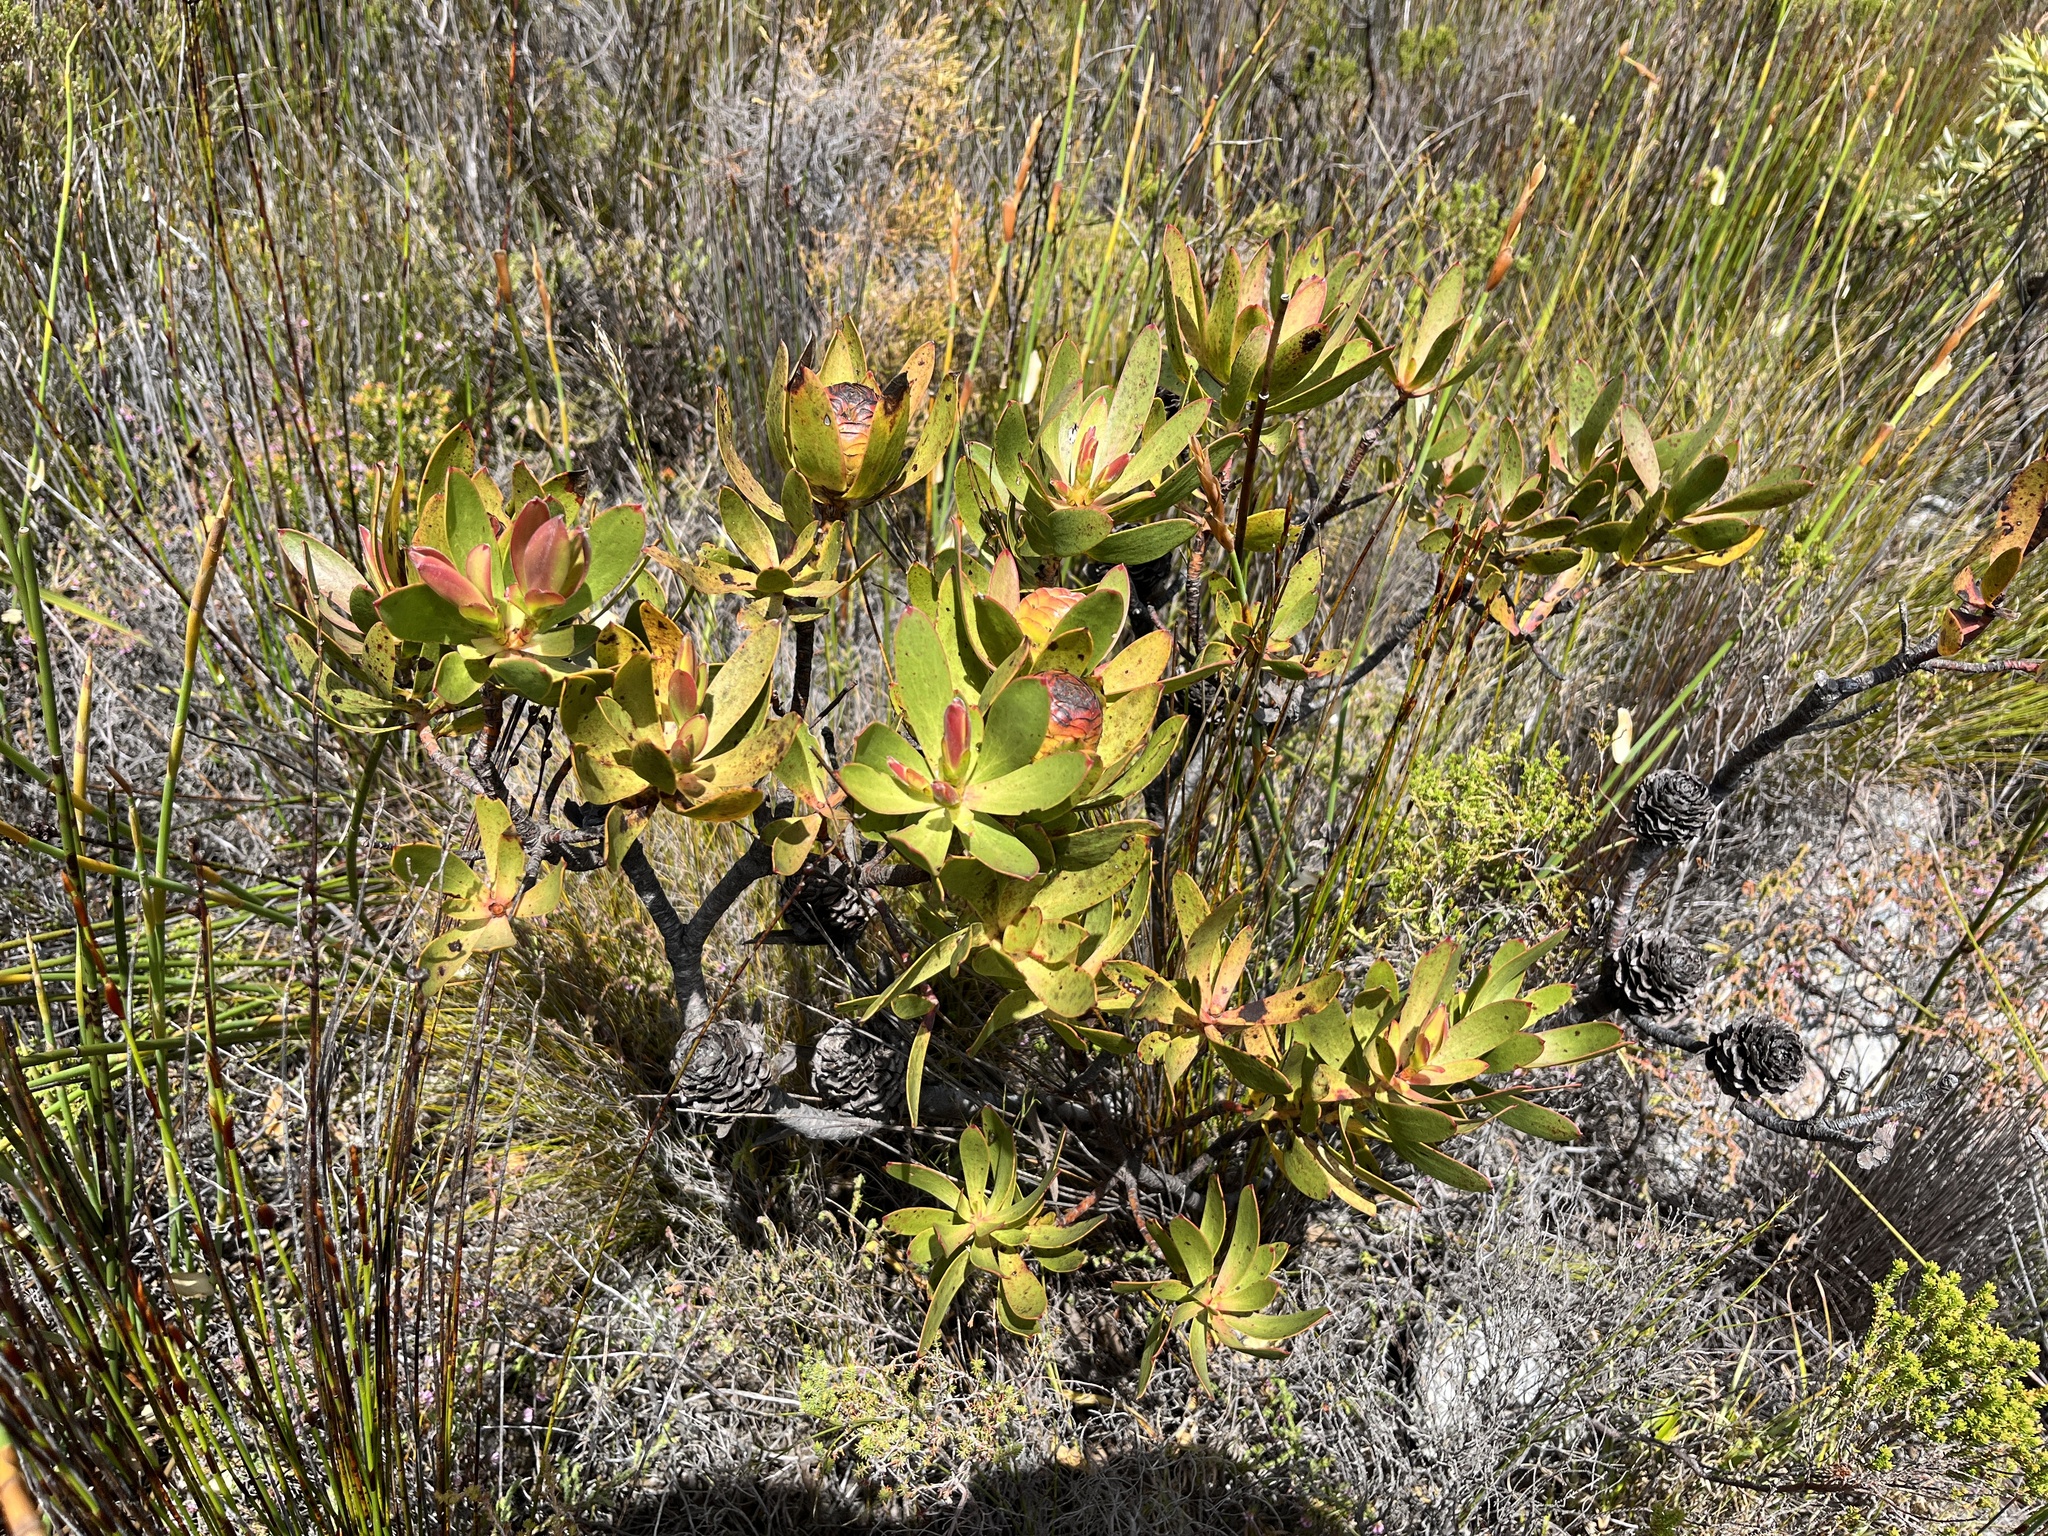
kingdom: Plantae
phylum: Tracheophyta
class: Magnoliopsida
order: Proteales
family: Proteaceae
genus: Leucadendron
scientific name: Leucadendron gandogeri
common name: Broad-leaf conebush
